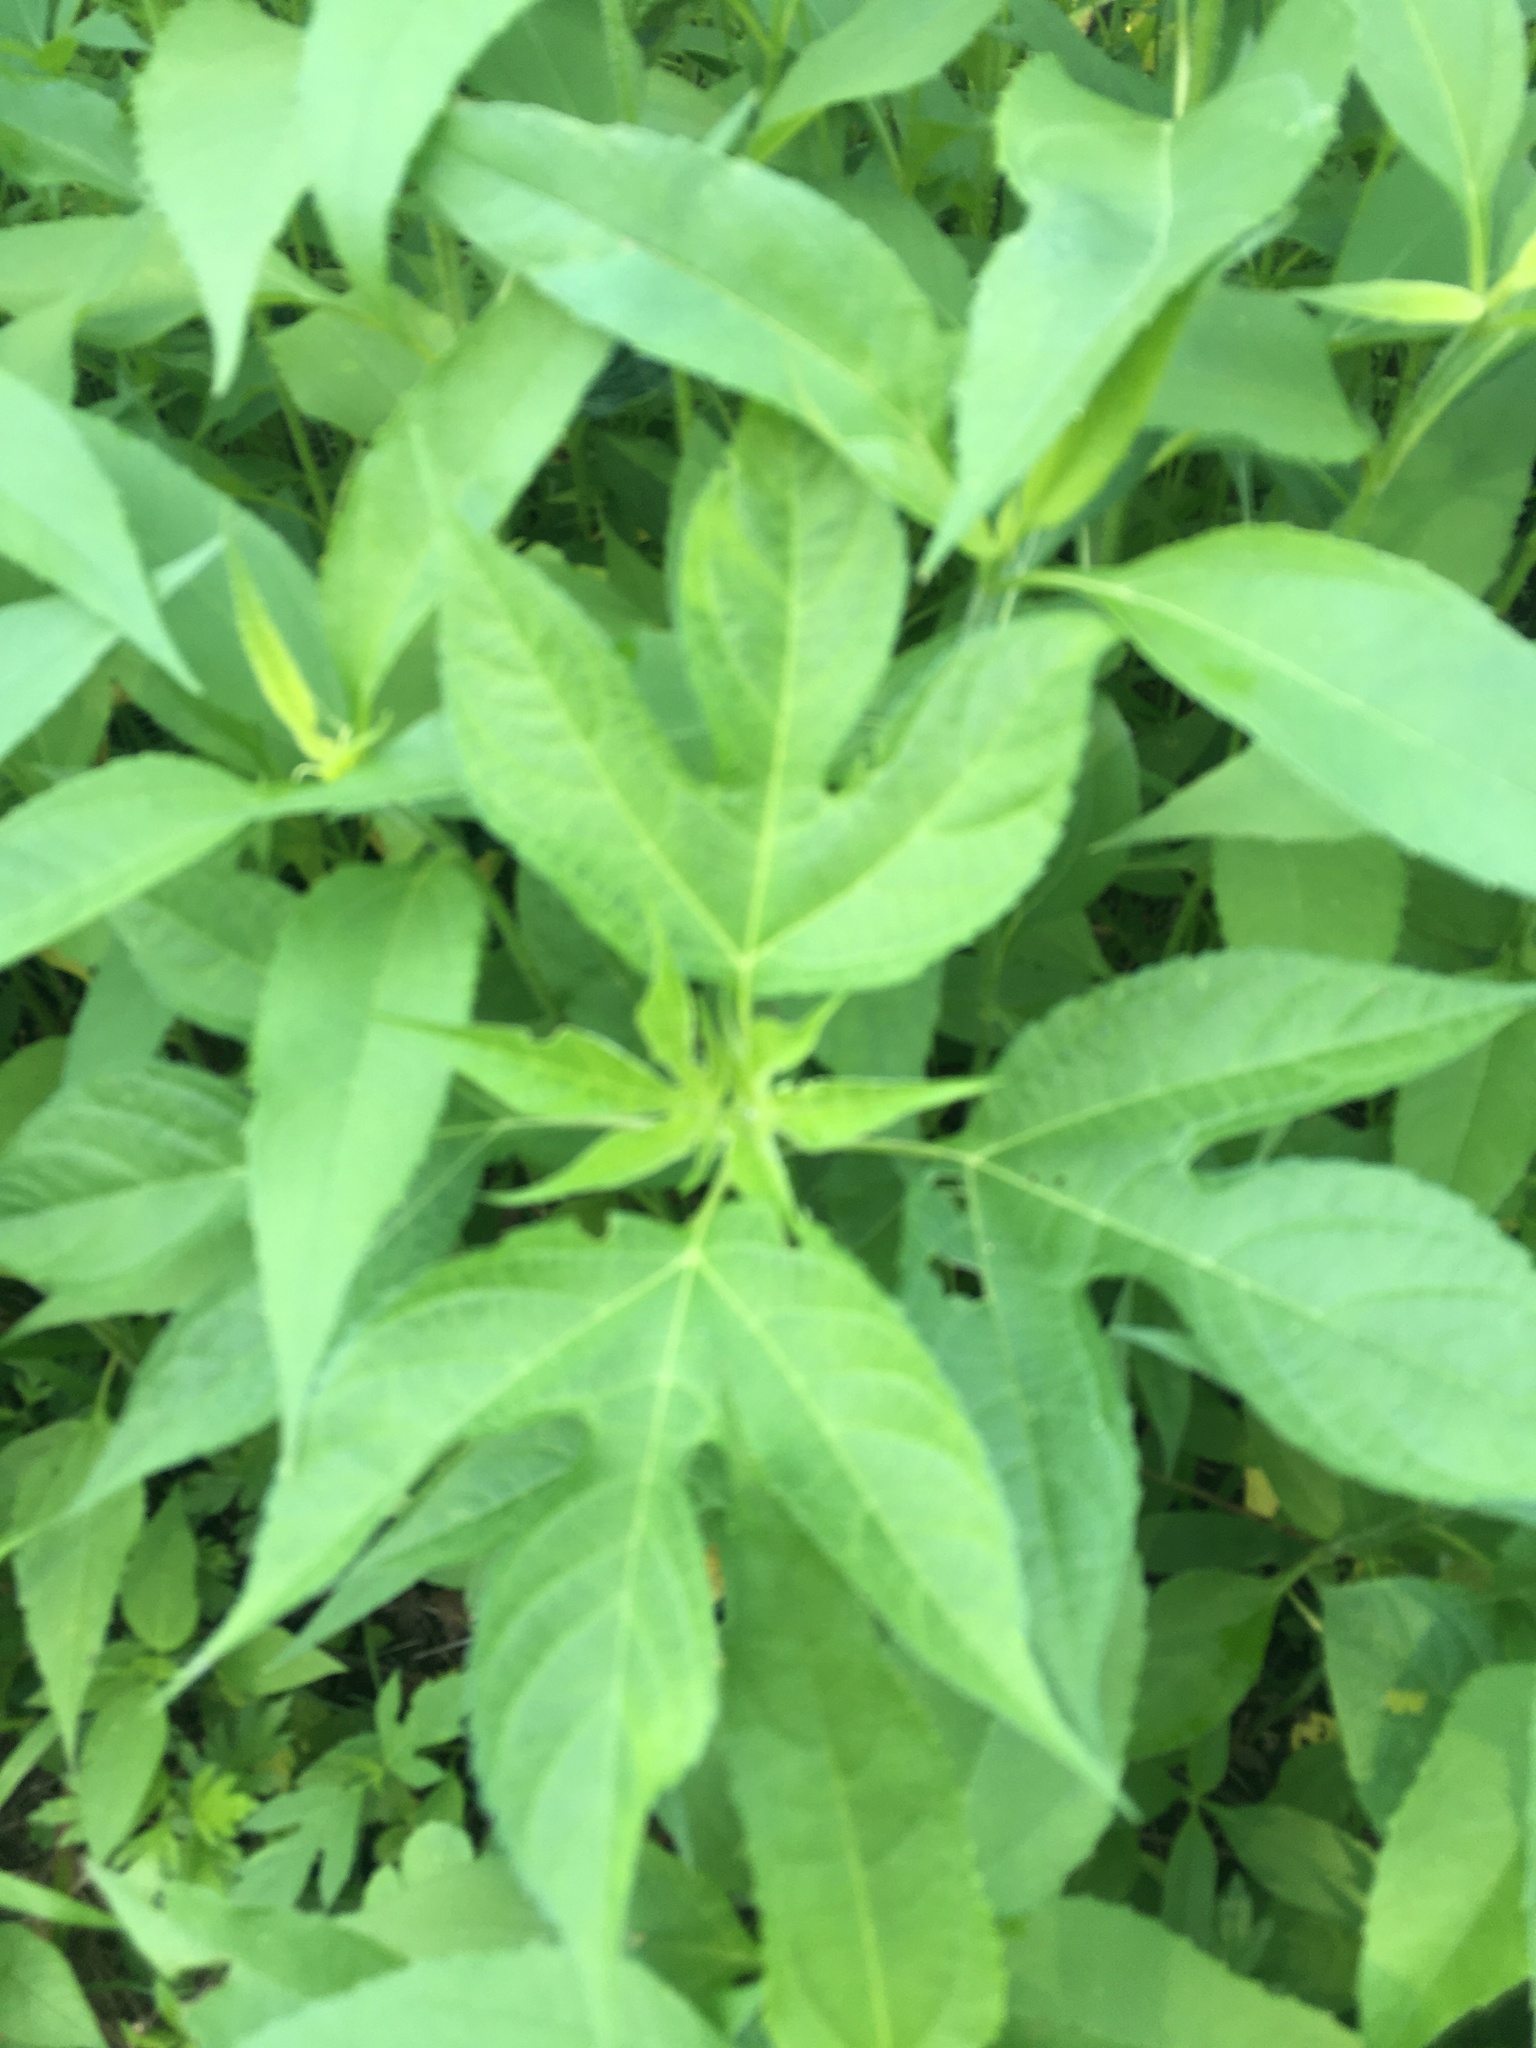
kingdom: Plantae
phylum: Tracheophyta
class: Magnoliopsida
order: Asterales
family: Asteraceae
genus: Ambrosia
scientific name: Ambrosia trifida
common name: Giant ragweed
